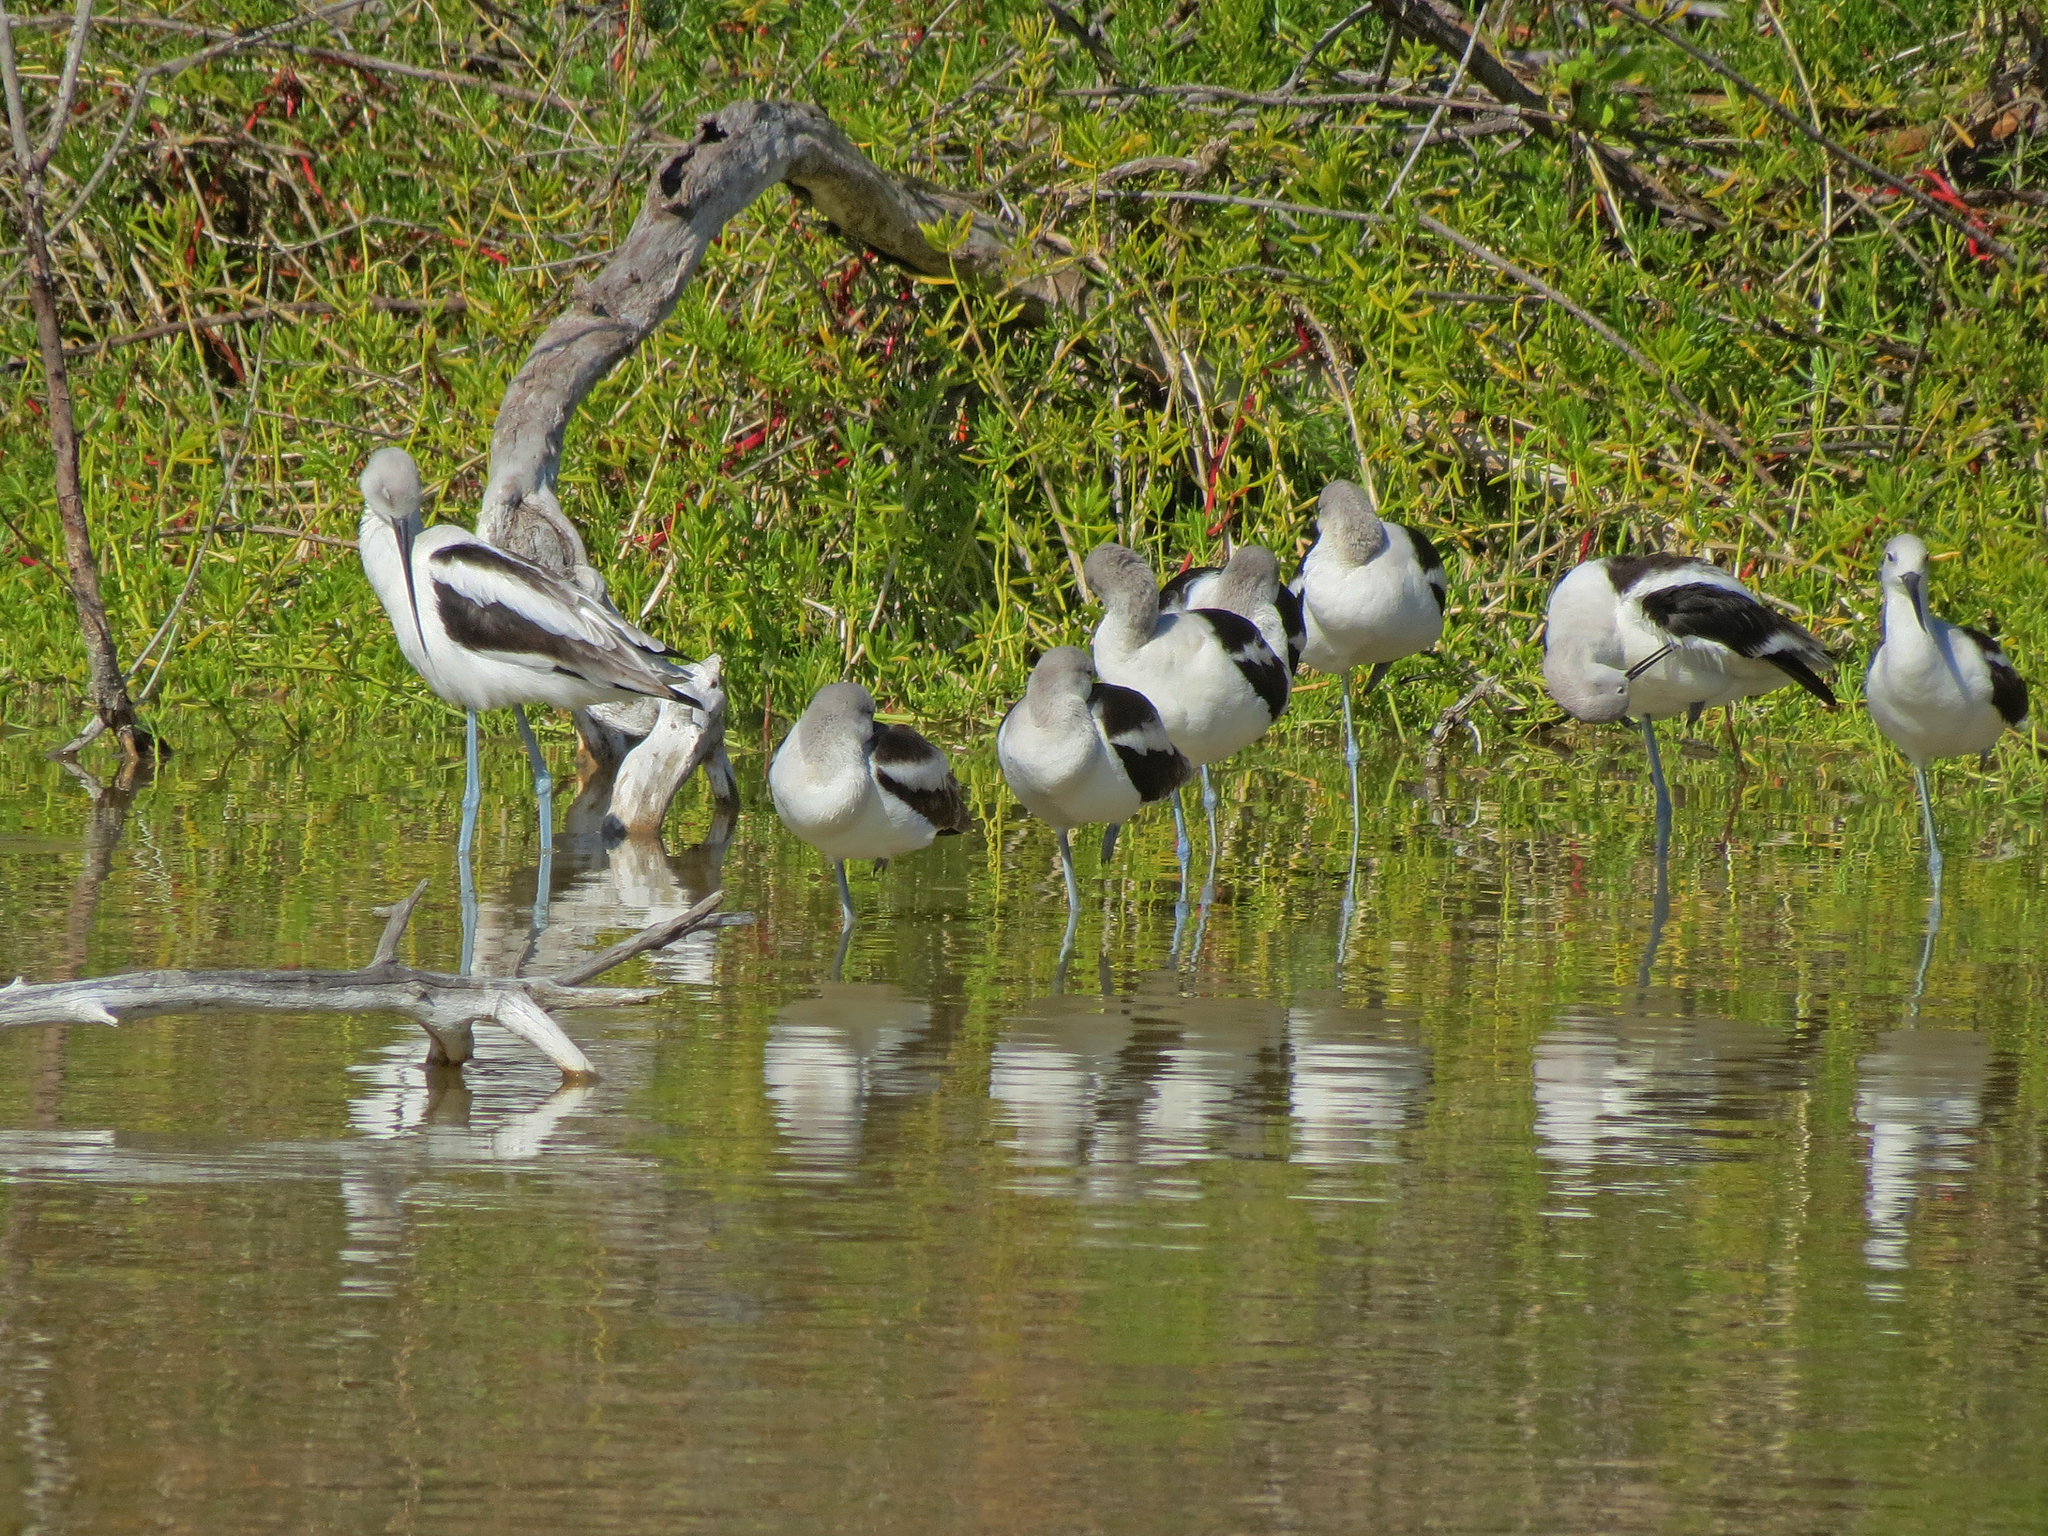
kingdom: Animalia
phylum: Chordata
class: Aves
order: Charadriiformes
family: Recurvirostridae
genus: Recurvirostra
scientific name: Recurvirostra americana
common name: American avocet
